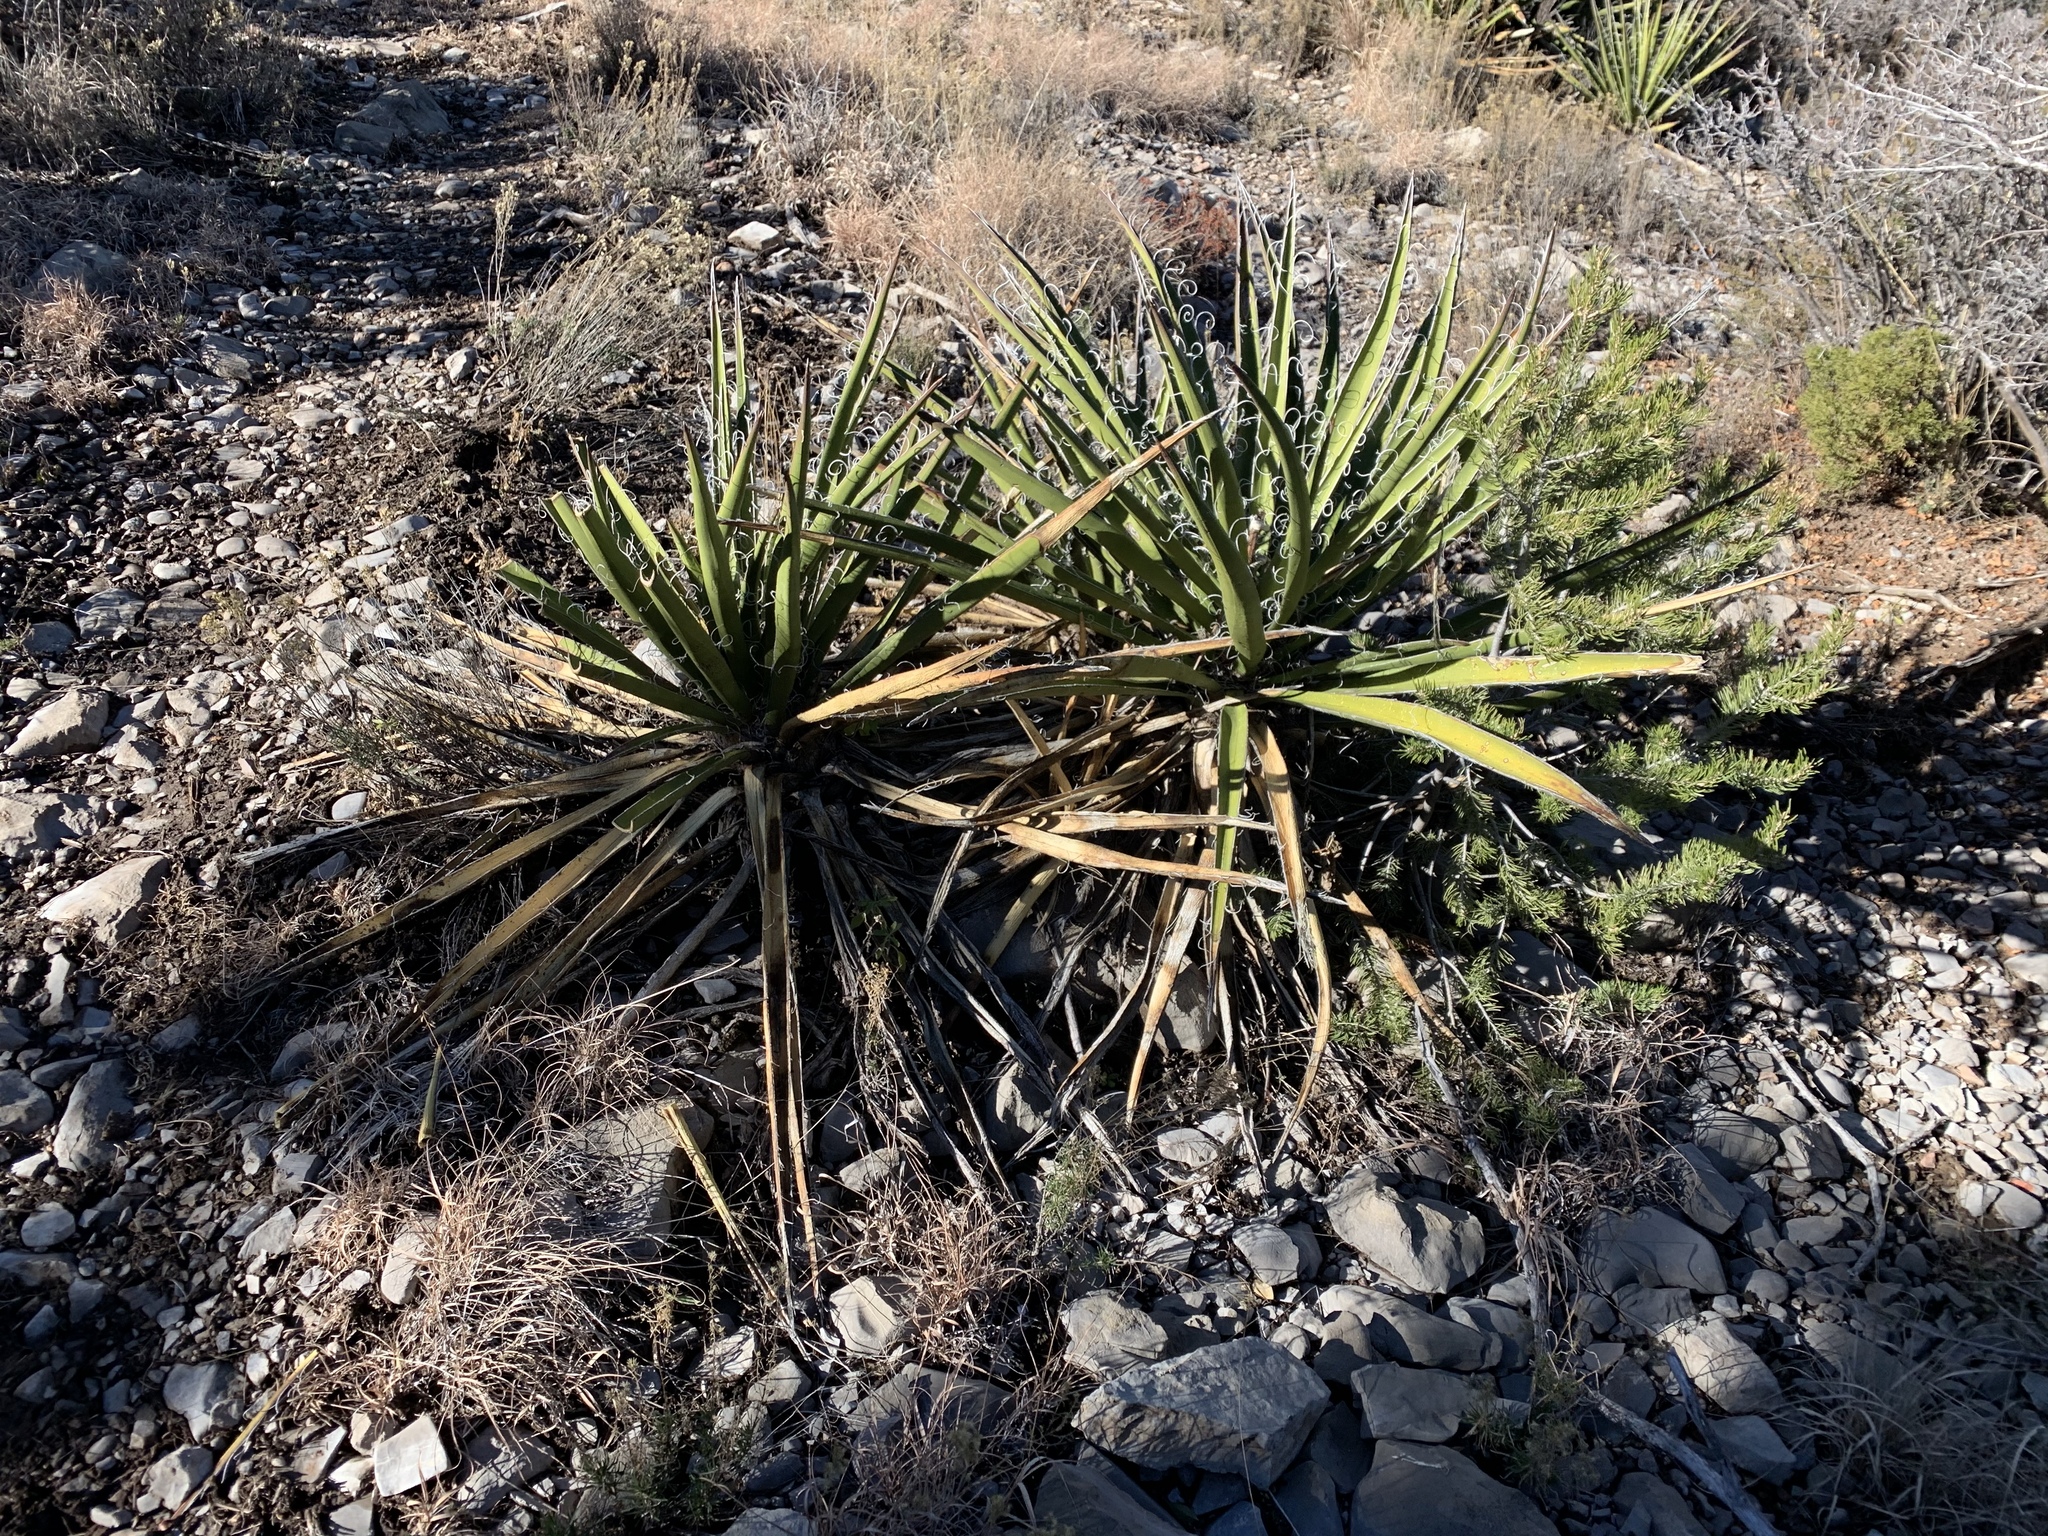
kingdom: Plantae
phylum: Tracheophyta
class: Liliopsida
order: Asparagales
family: Asparagaceae
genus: Yucca
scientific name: Yucca baccata
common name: Banana yucca
